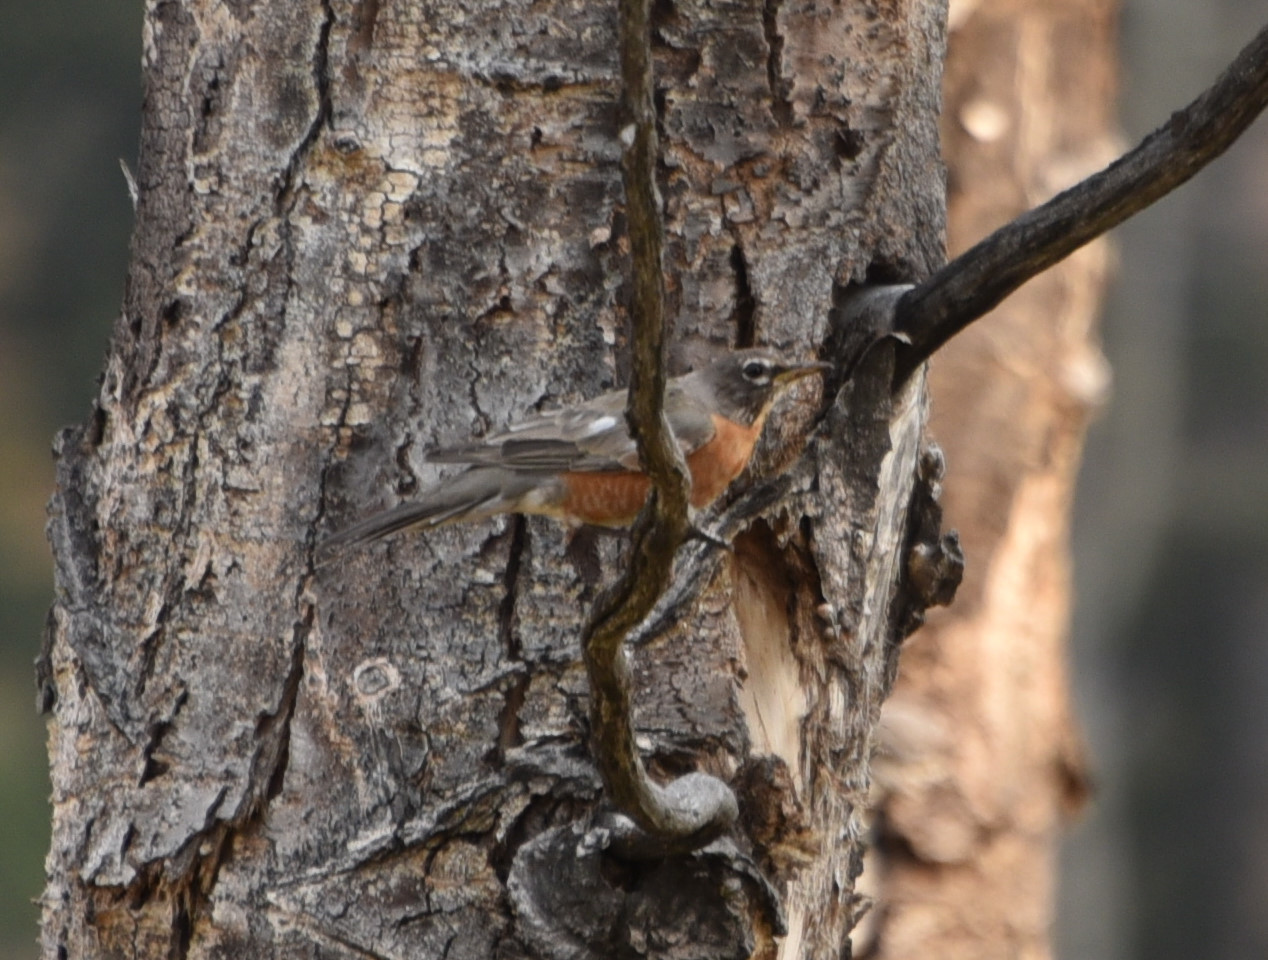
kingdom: Animalia
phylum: Chordata
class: Aves
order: Passeriformes
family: Turdidae
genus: Turdus
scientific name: Turdus migratorius
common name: American robin
